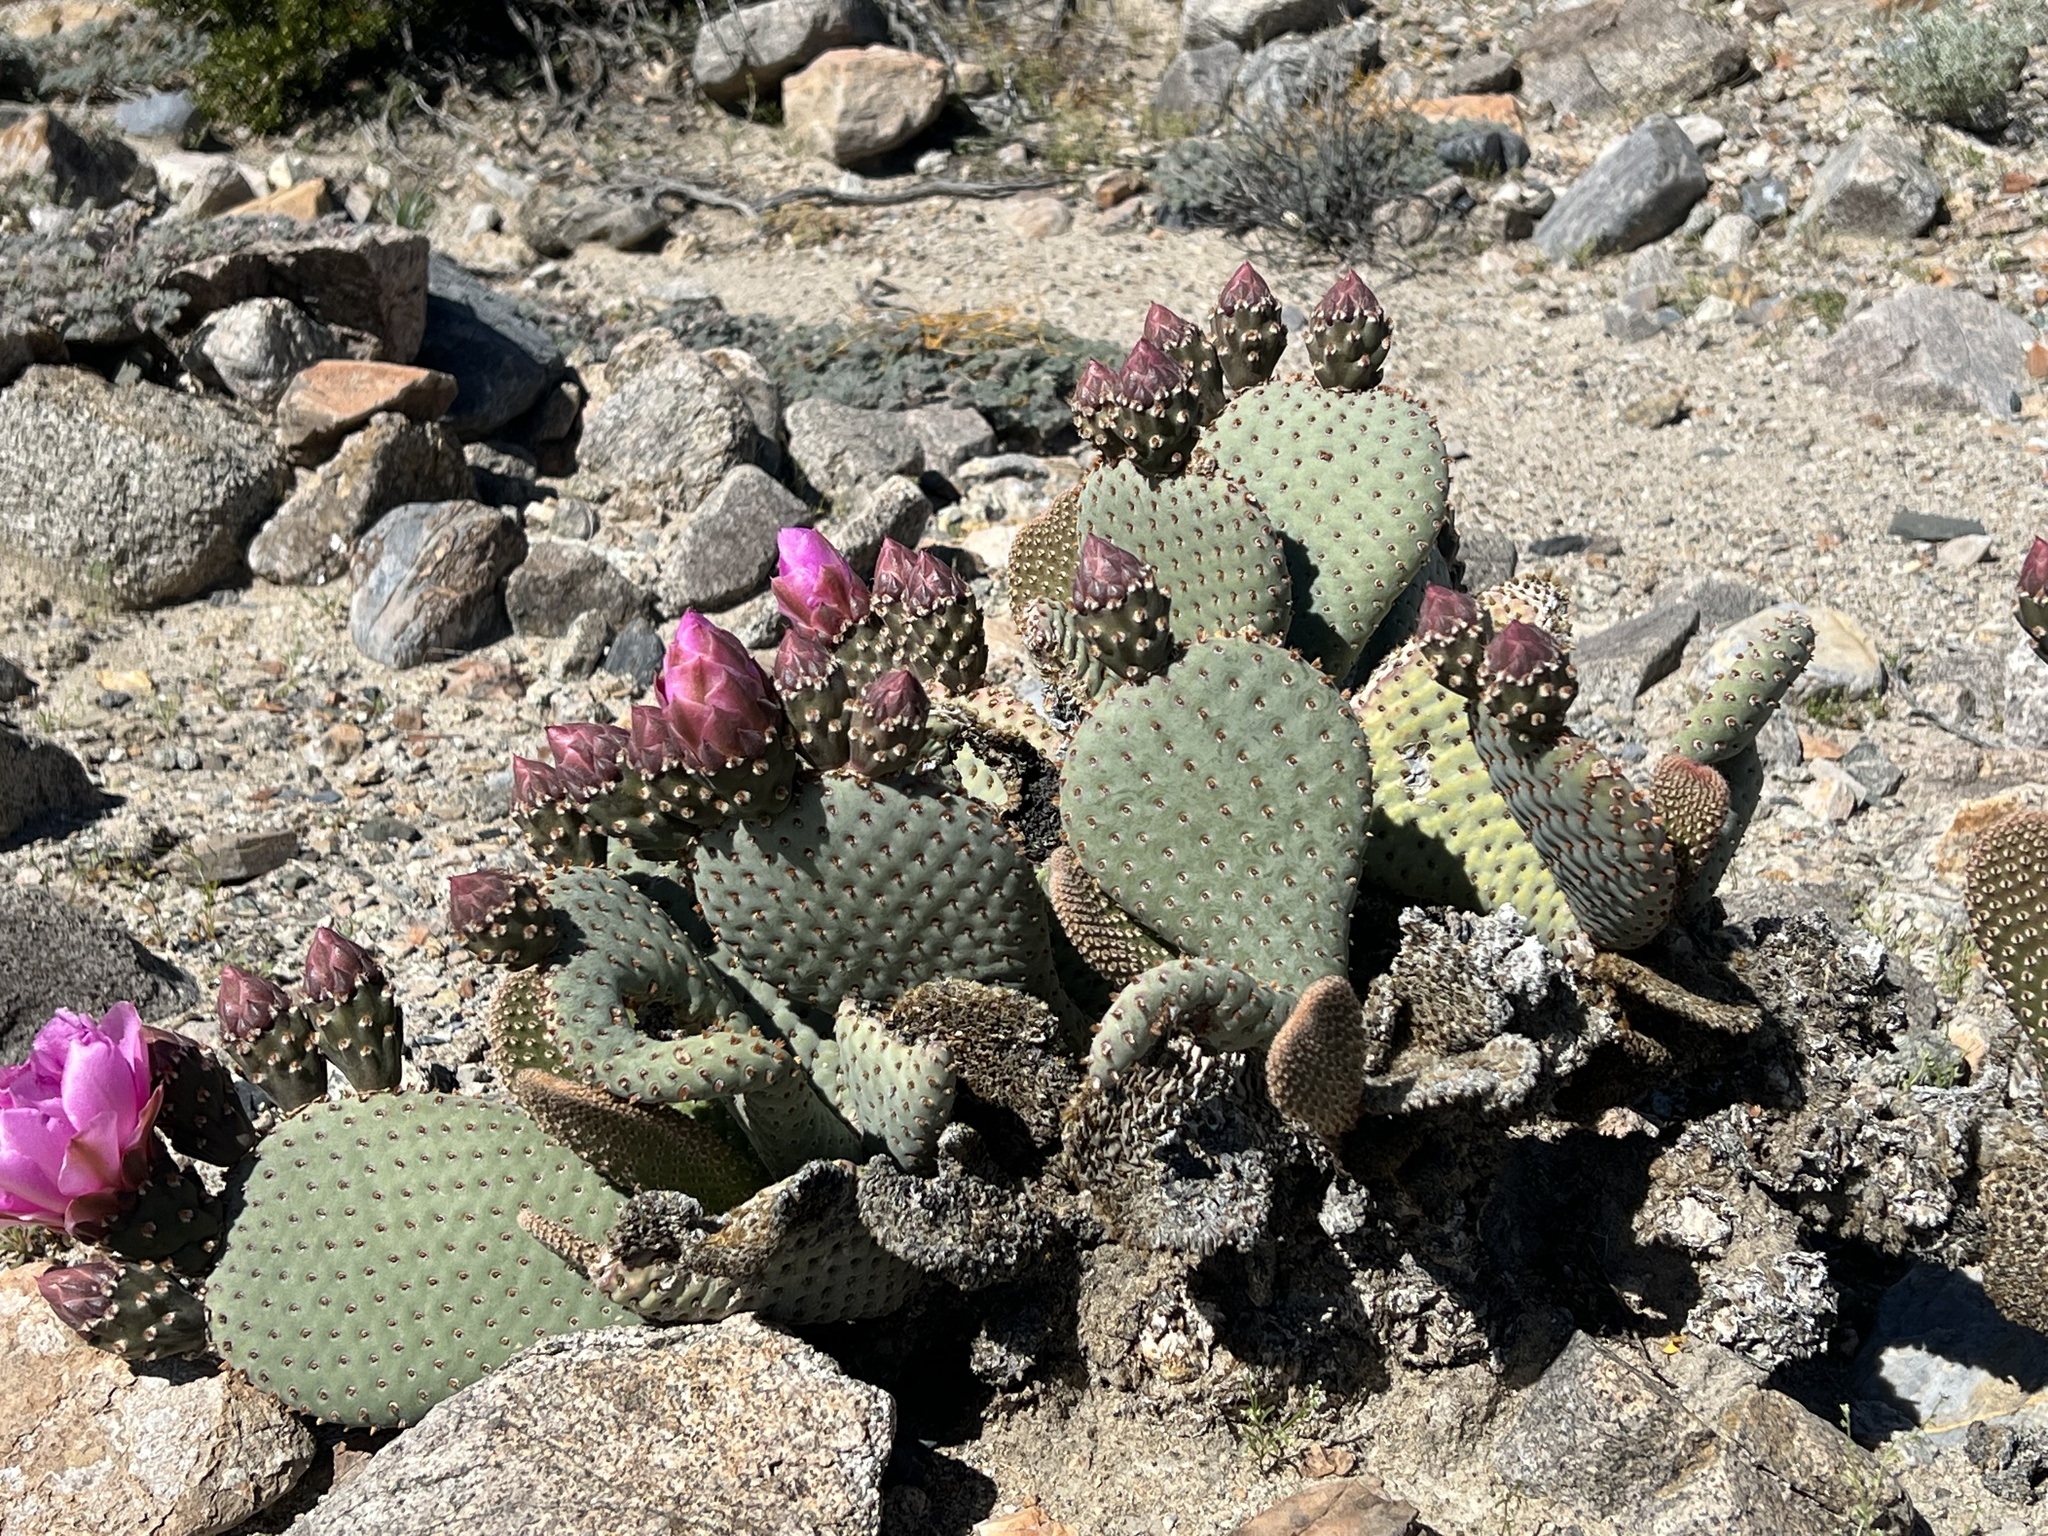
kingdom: Plantae
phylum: Tracheophyta
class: Magnoliopsida
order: Caryophyllales
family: Cactaceae
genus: Opuntia
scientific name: Opuntia basilaris
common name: Beavertail prickly-pear
